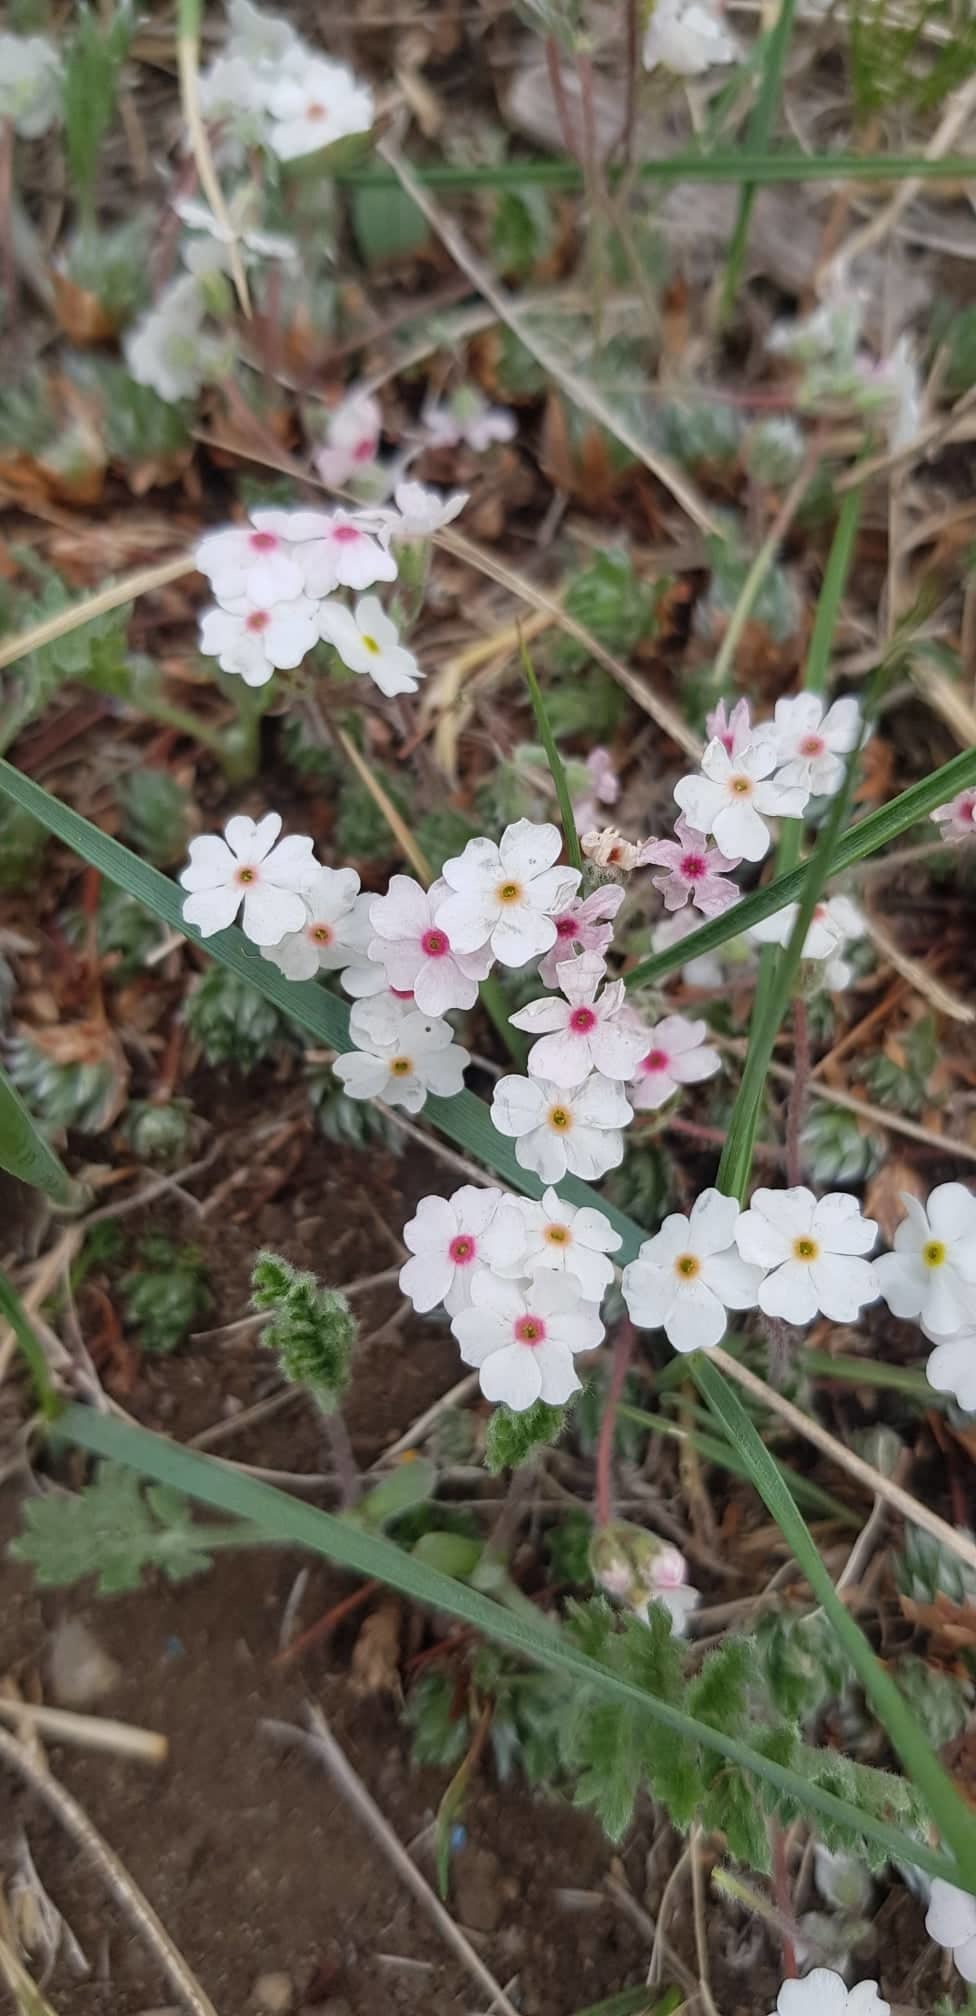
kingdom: Plantae
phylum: Tracheophyta
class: Magnoliopsida
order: Ericales
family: Primulaceae
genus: Androsace
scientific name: Androsace incana
